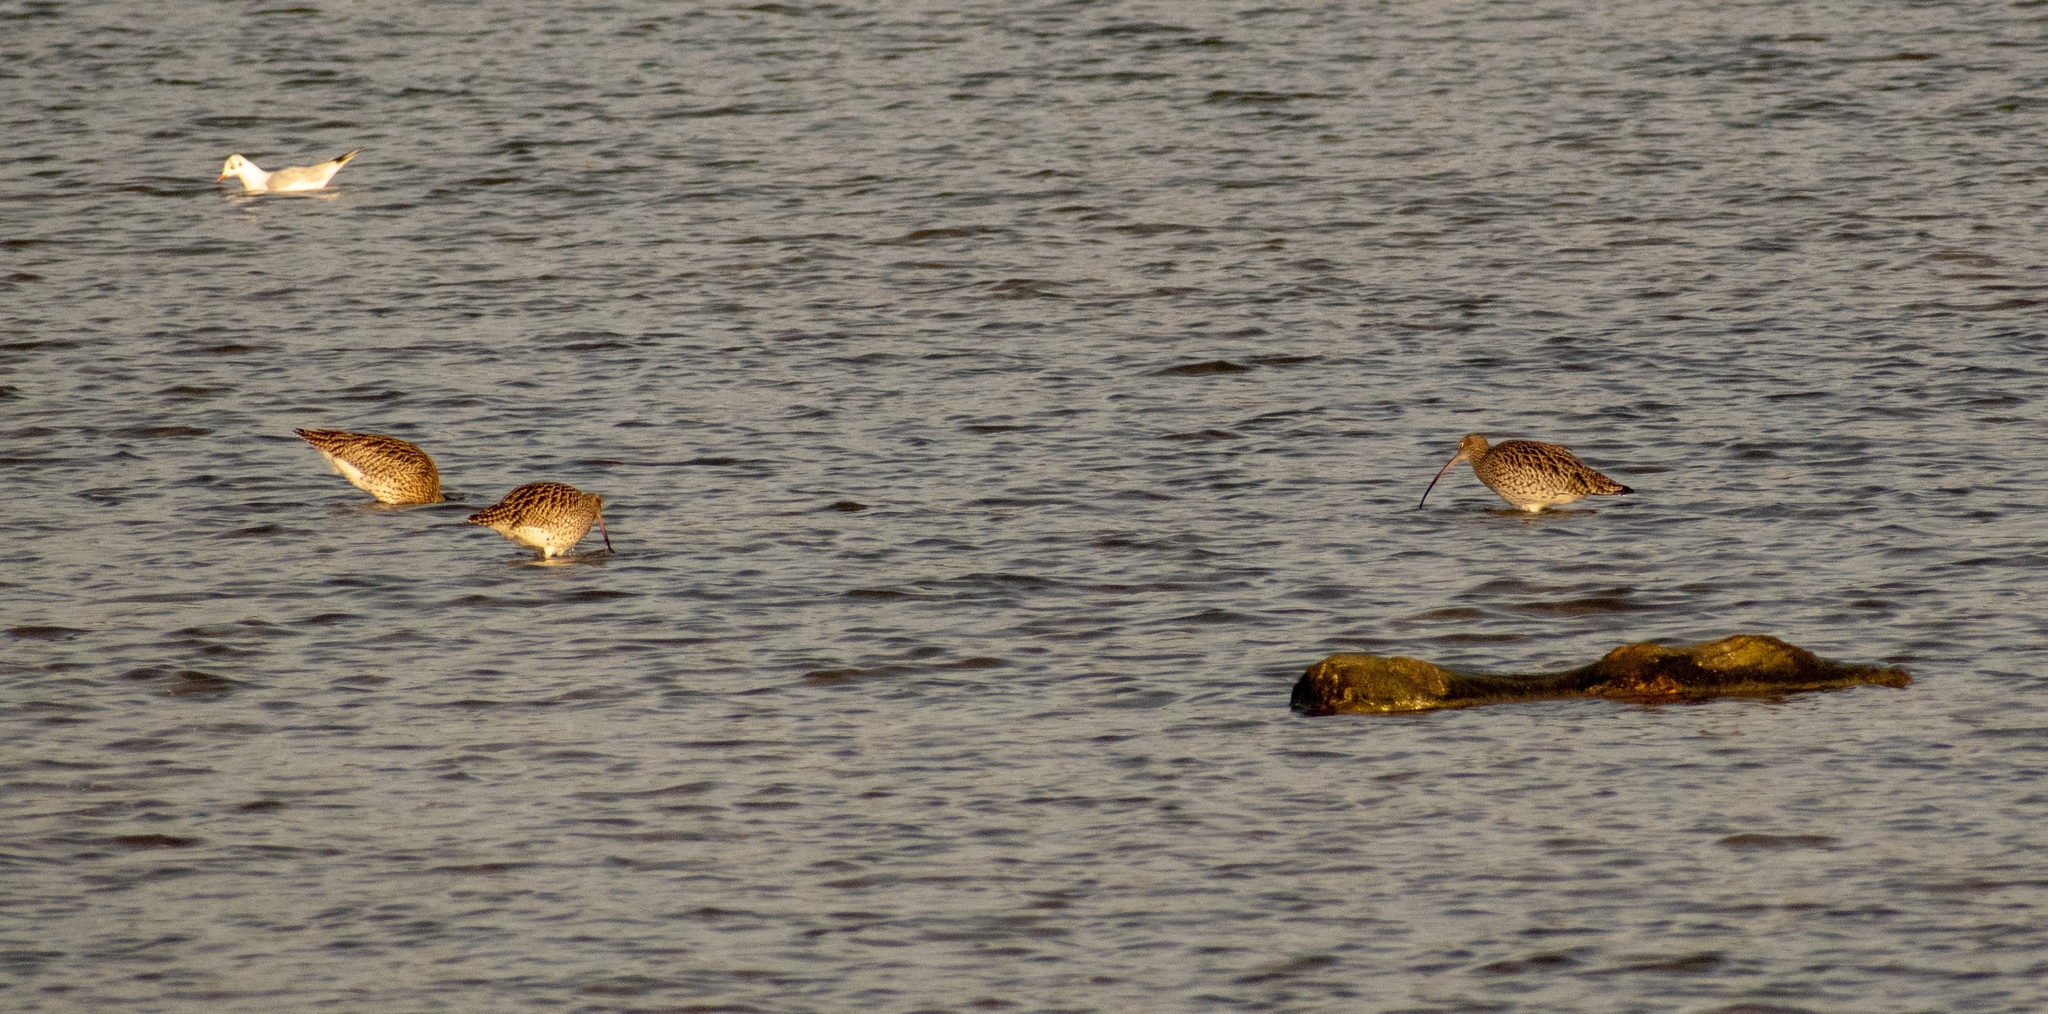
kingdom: Animalia
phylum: Chordata
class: Aves
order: Charadriiformes
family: Scolopacidae
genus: Numenius
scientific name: Numenius arquata
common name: Eurasian curlew
